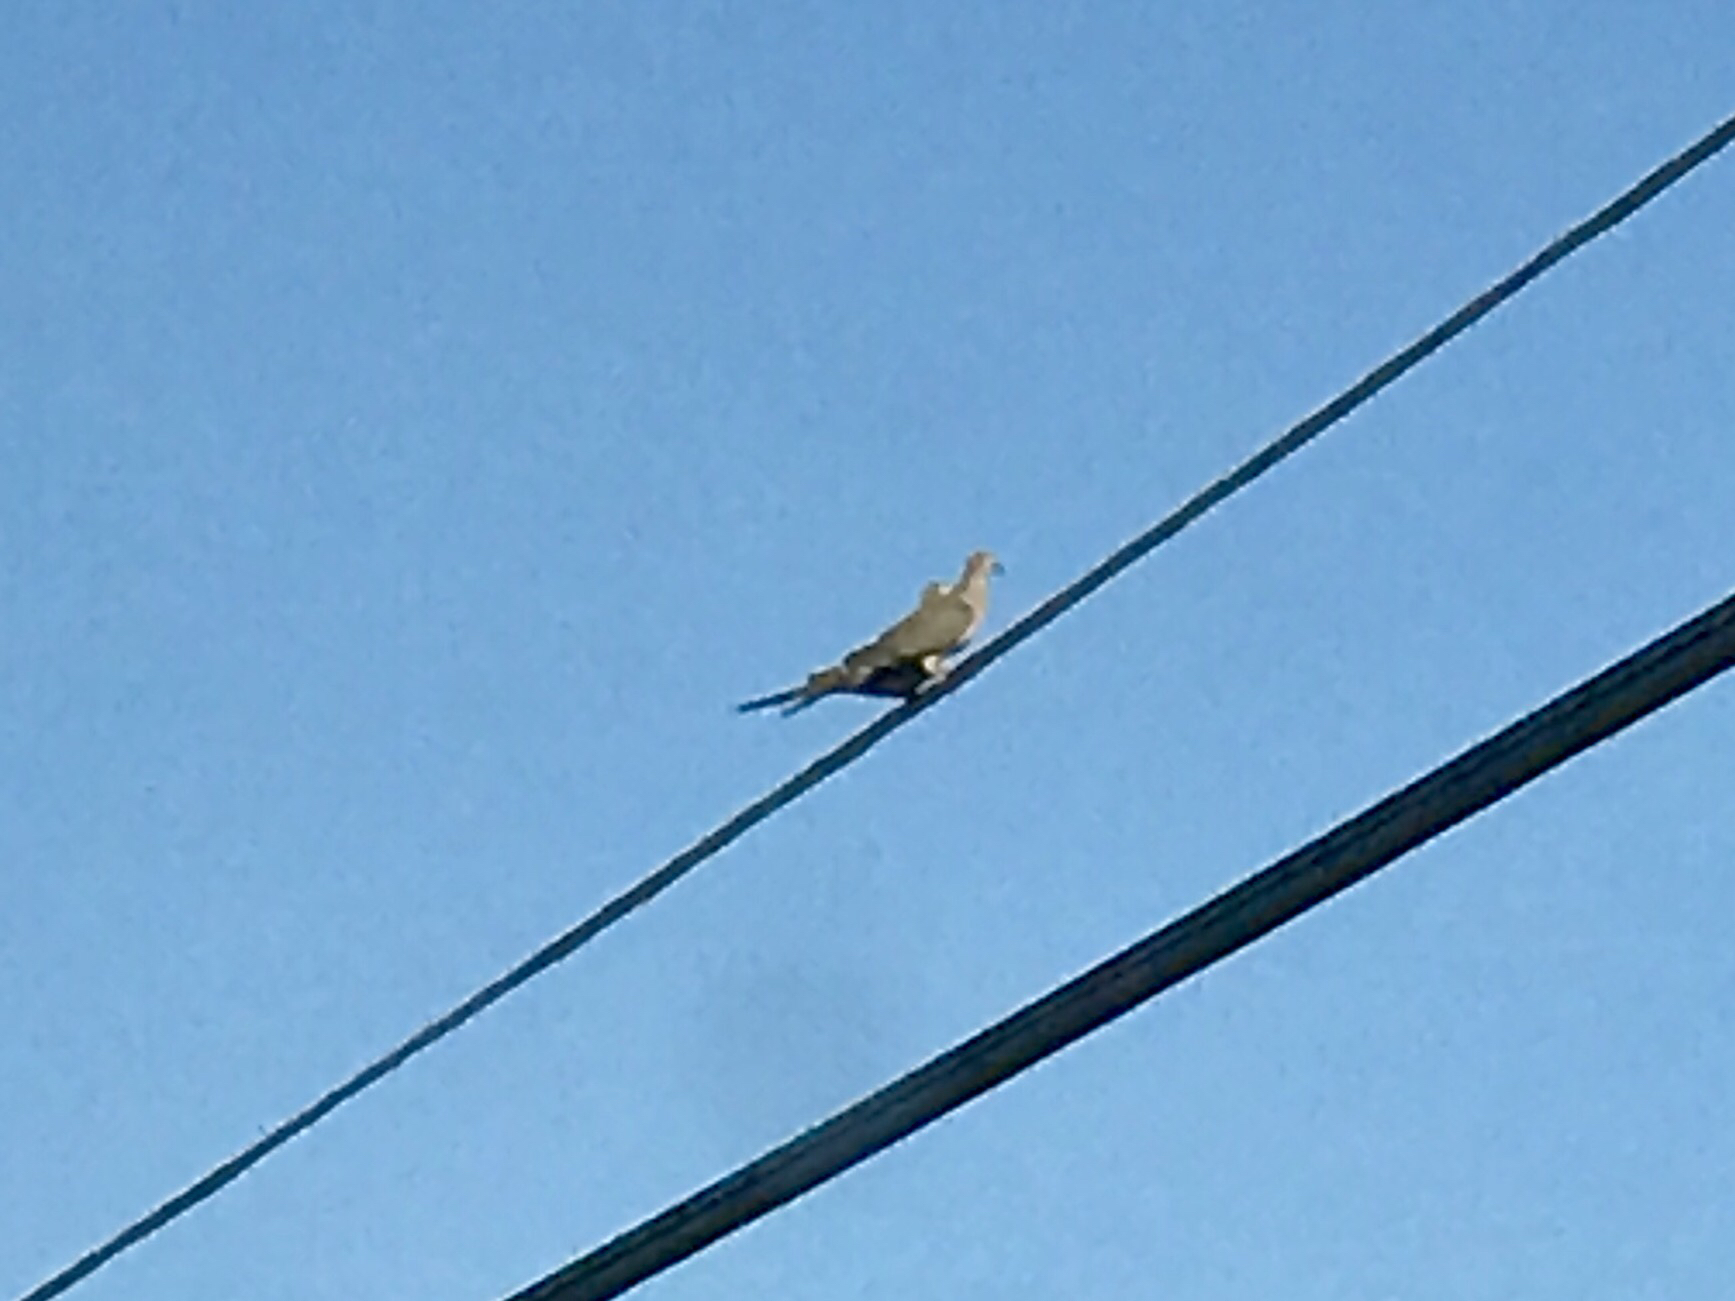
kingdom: Animalia
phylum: Chordata
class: Aves
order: Columbiformes
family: Columbidae
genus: Zenaida
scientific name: Zenaida macroura
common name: Mourning dove
